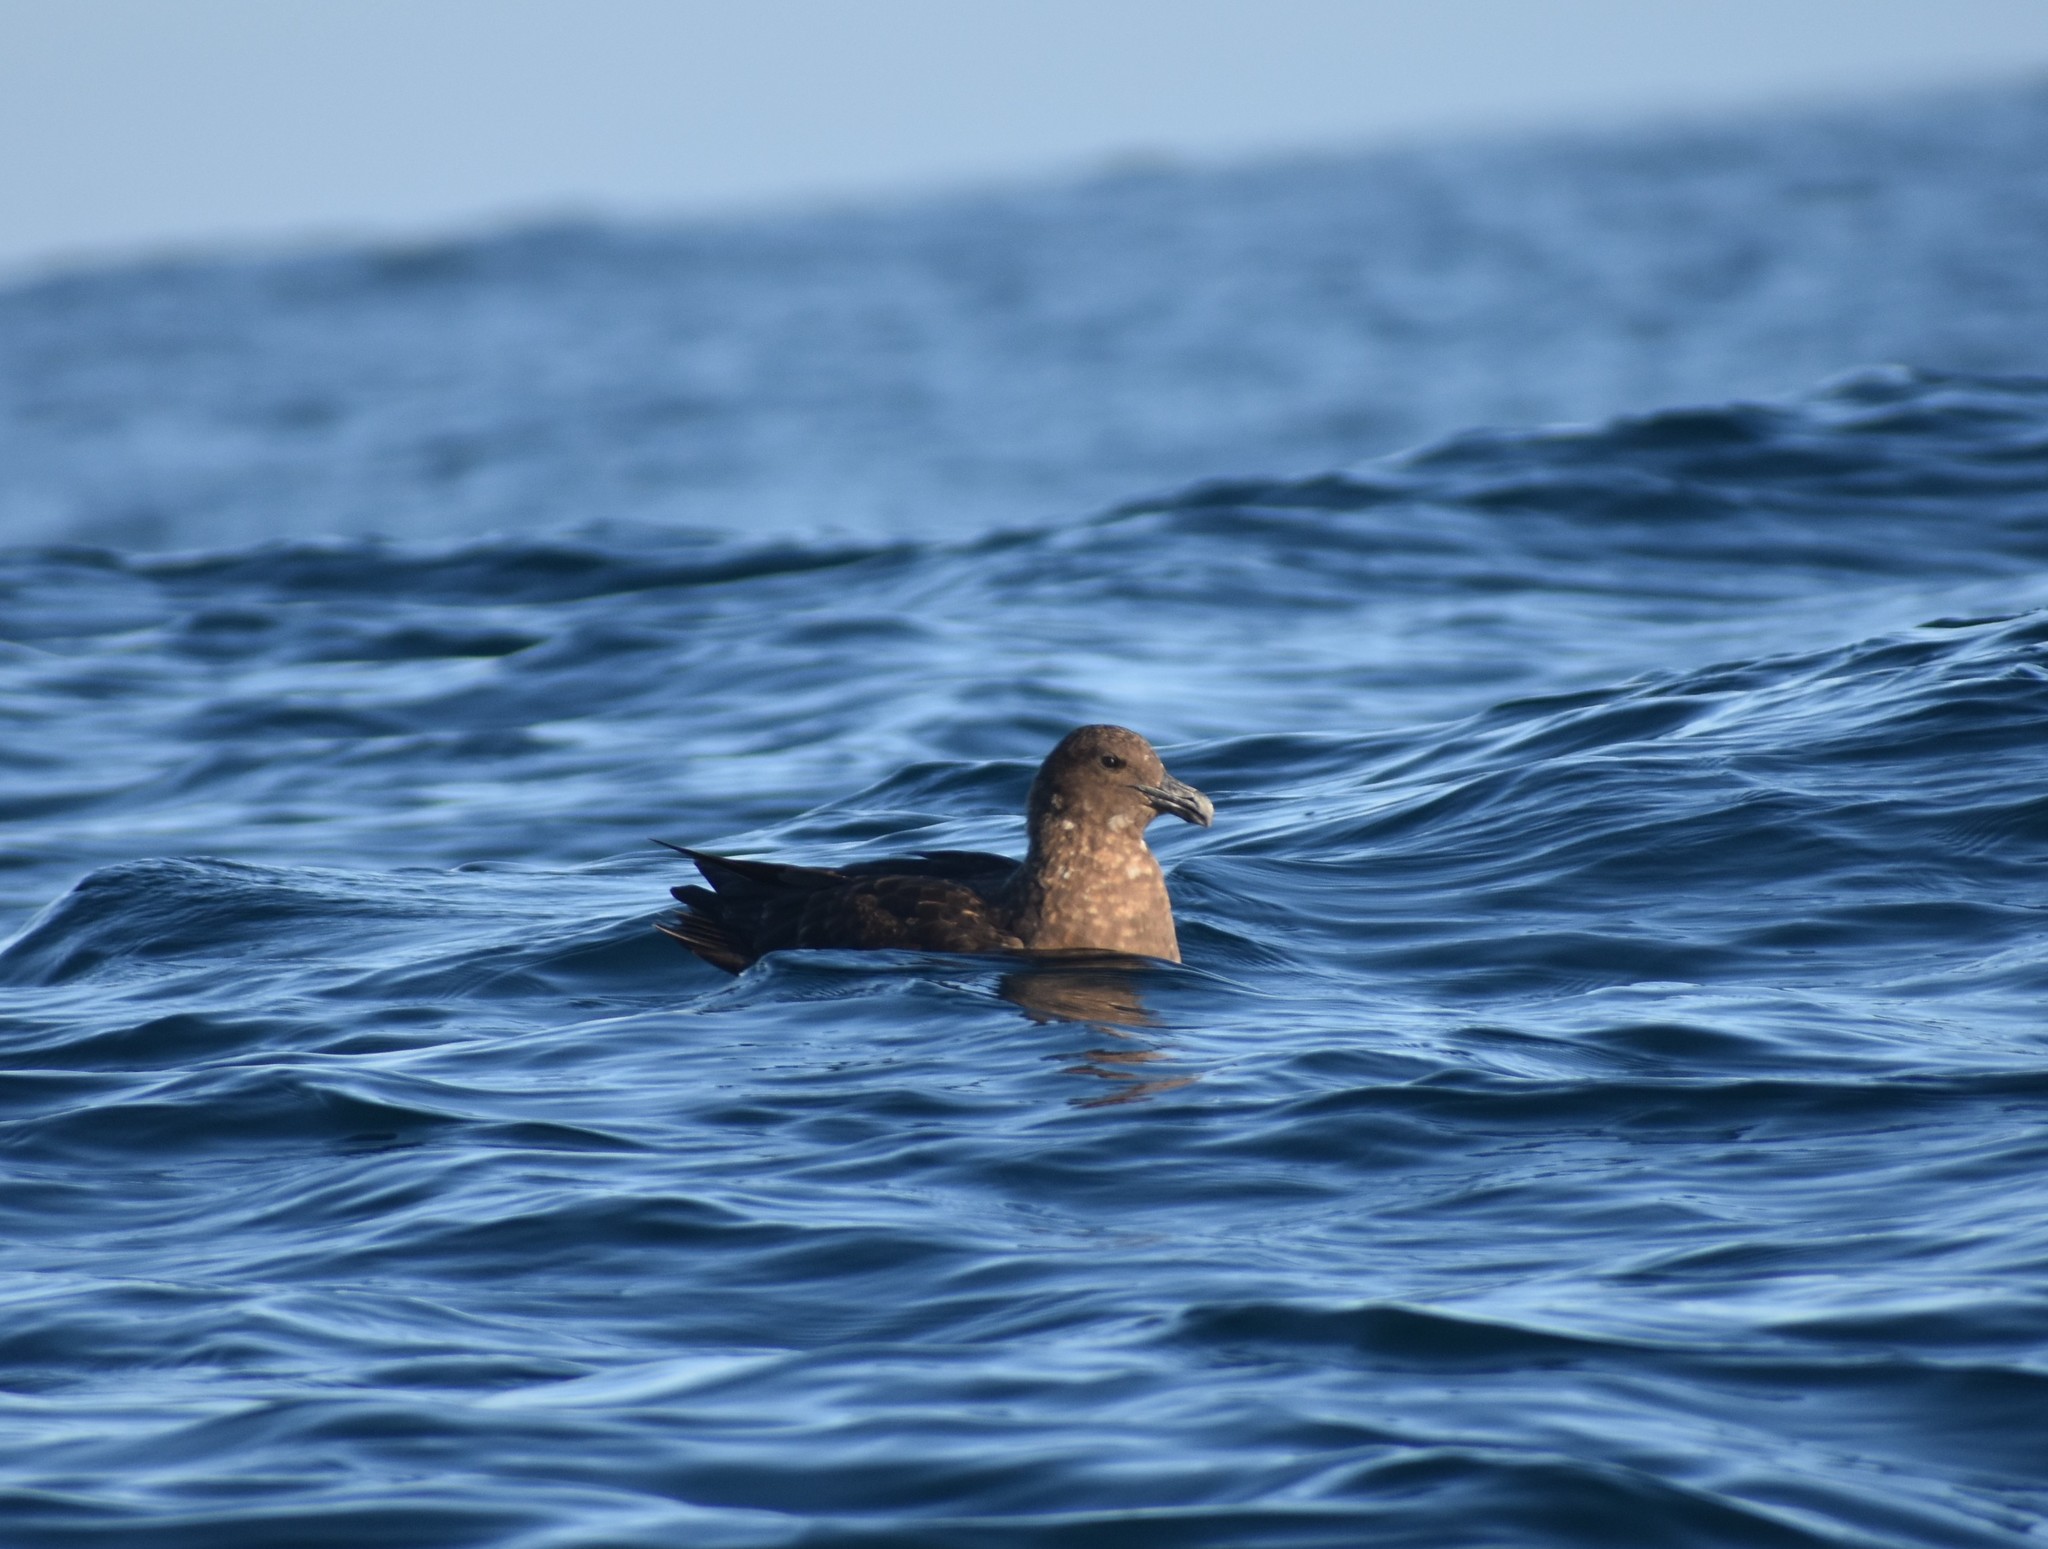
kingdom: Animalia
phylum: Chordata
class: Aves
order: Charadriiformes
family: Stercorariidae
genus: Stercorarius
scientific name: Stercorarius antarcticus
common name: Brown skua
